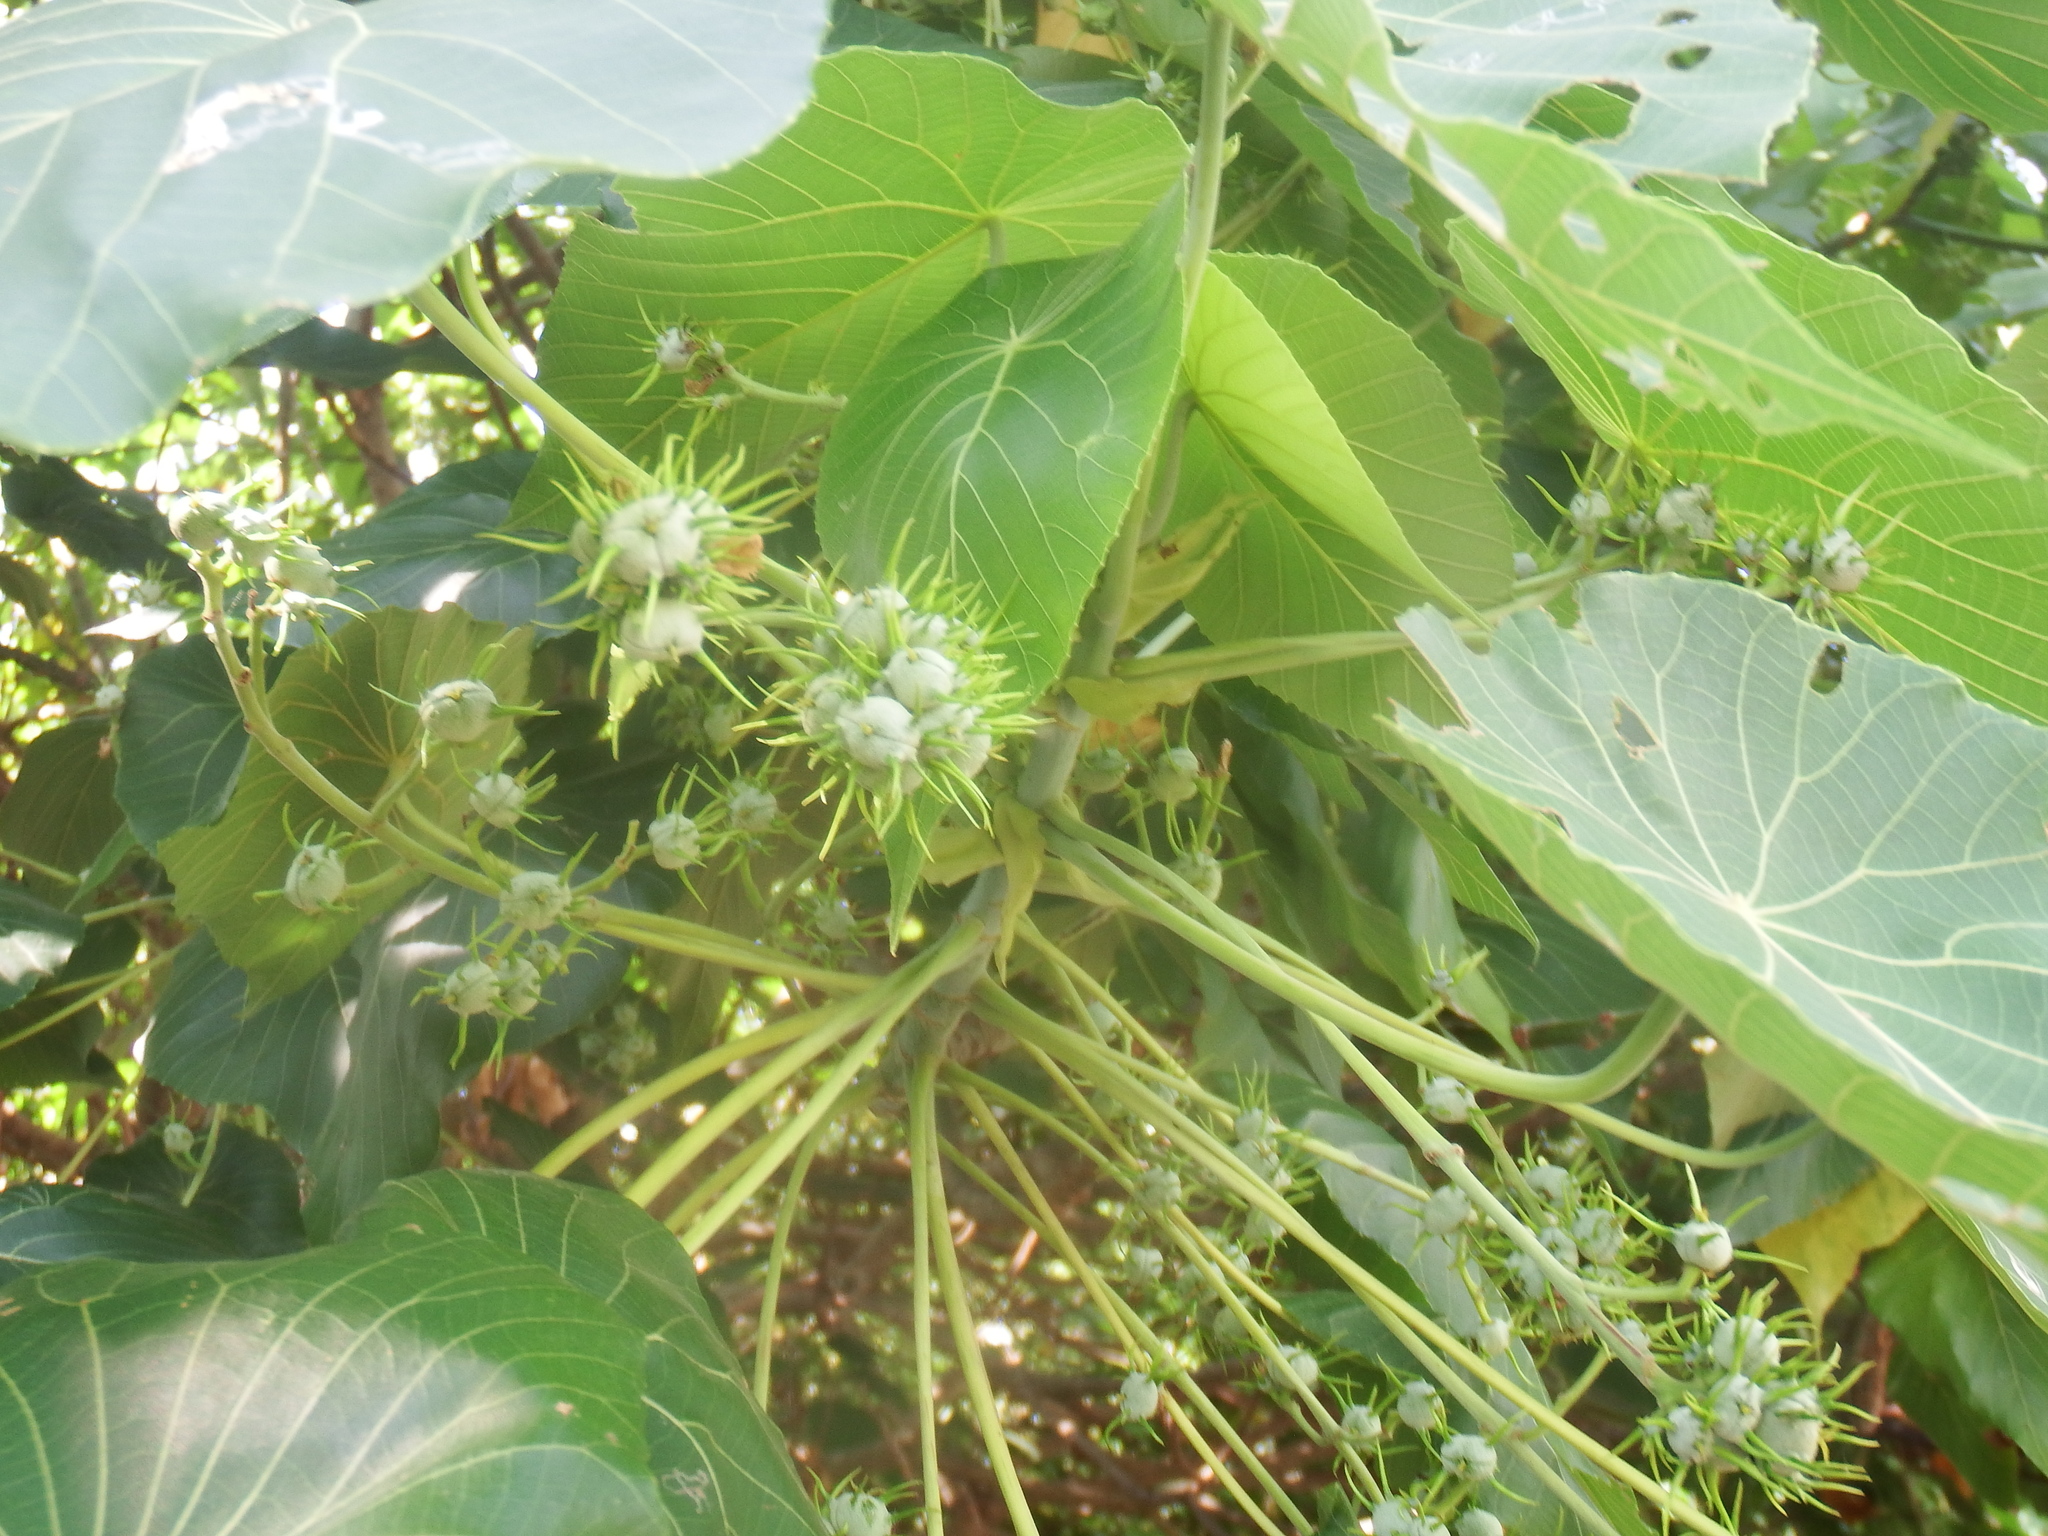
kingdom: Plantae
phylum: Tracheophyta
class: Magnoliopsida
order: Malpighiales
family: Euphorbiaceae
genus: Macaranga
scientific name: Macaranga tanarius
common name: Parasol leaf tree
